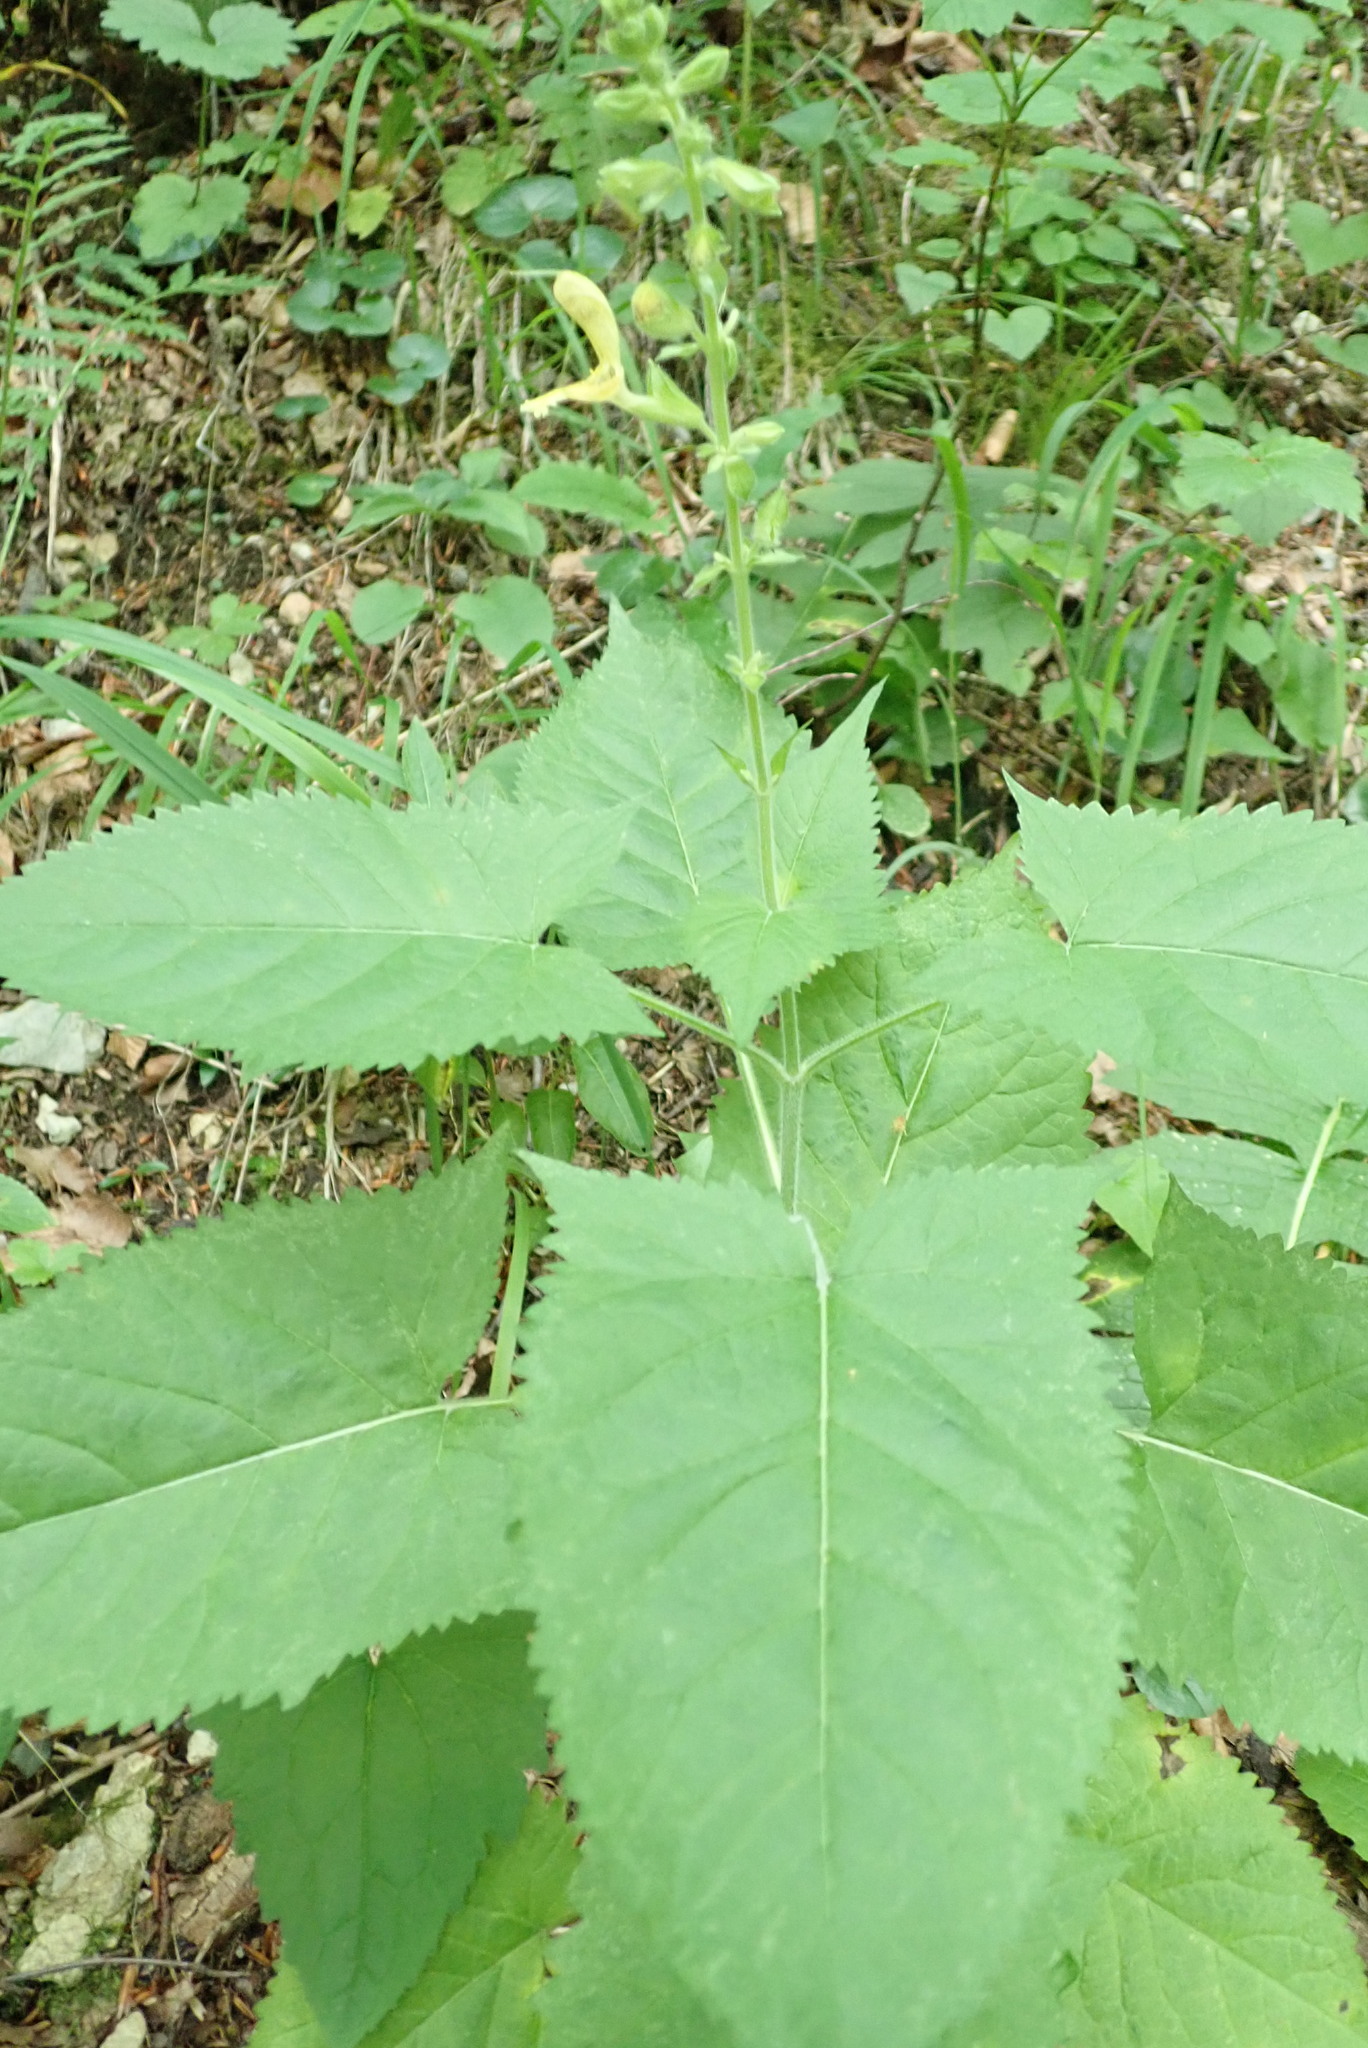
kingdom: Plantae
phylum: Tracheophyta
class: Magnoliopsida
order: Lamiales
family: Lamiaceae
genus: Salvia
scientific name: Salvia glutinosa
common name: Sticky clary
